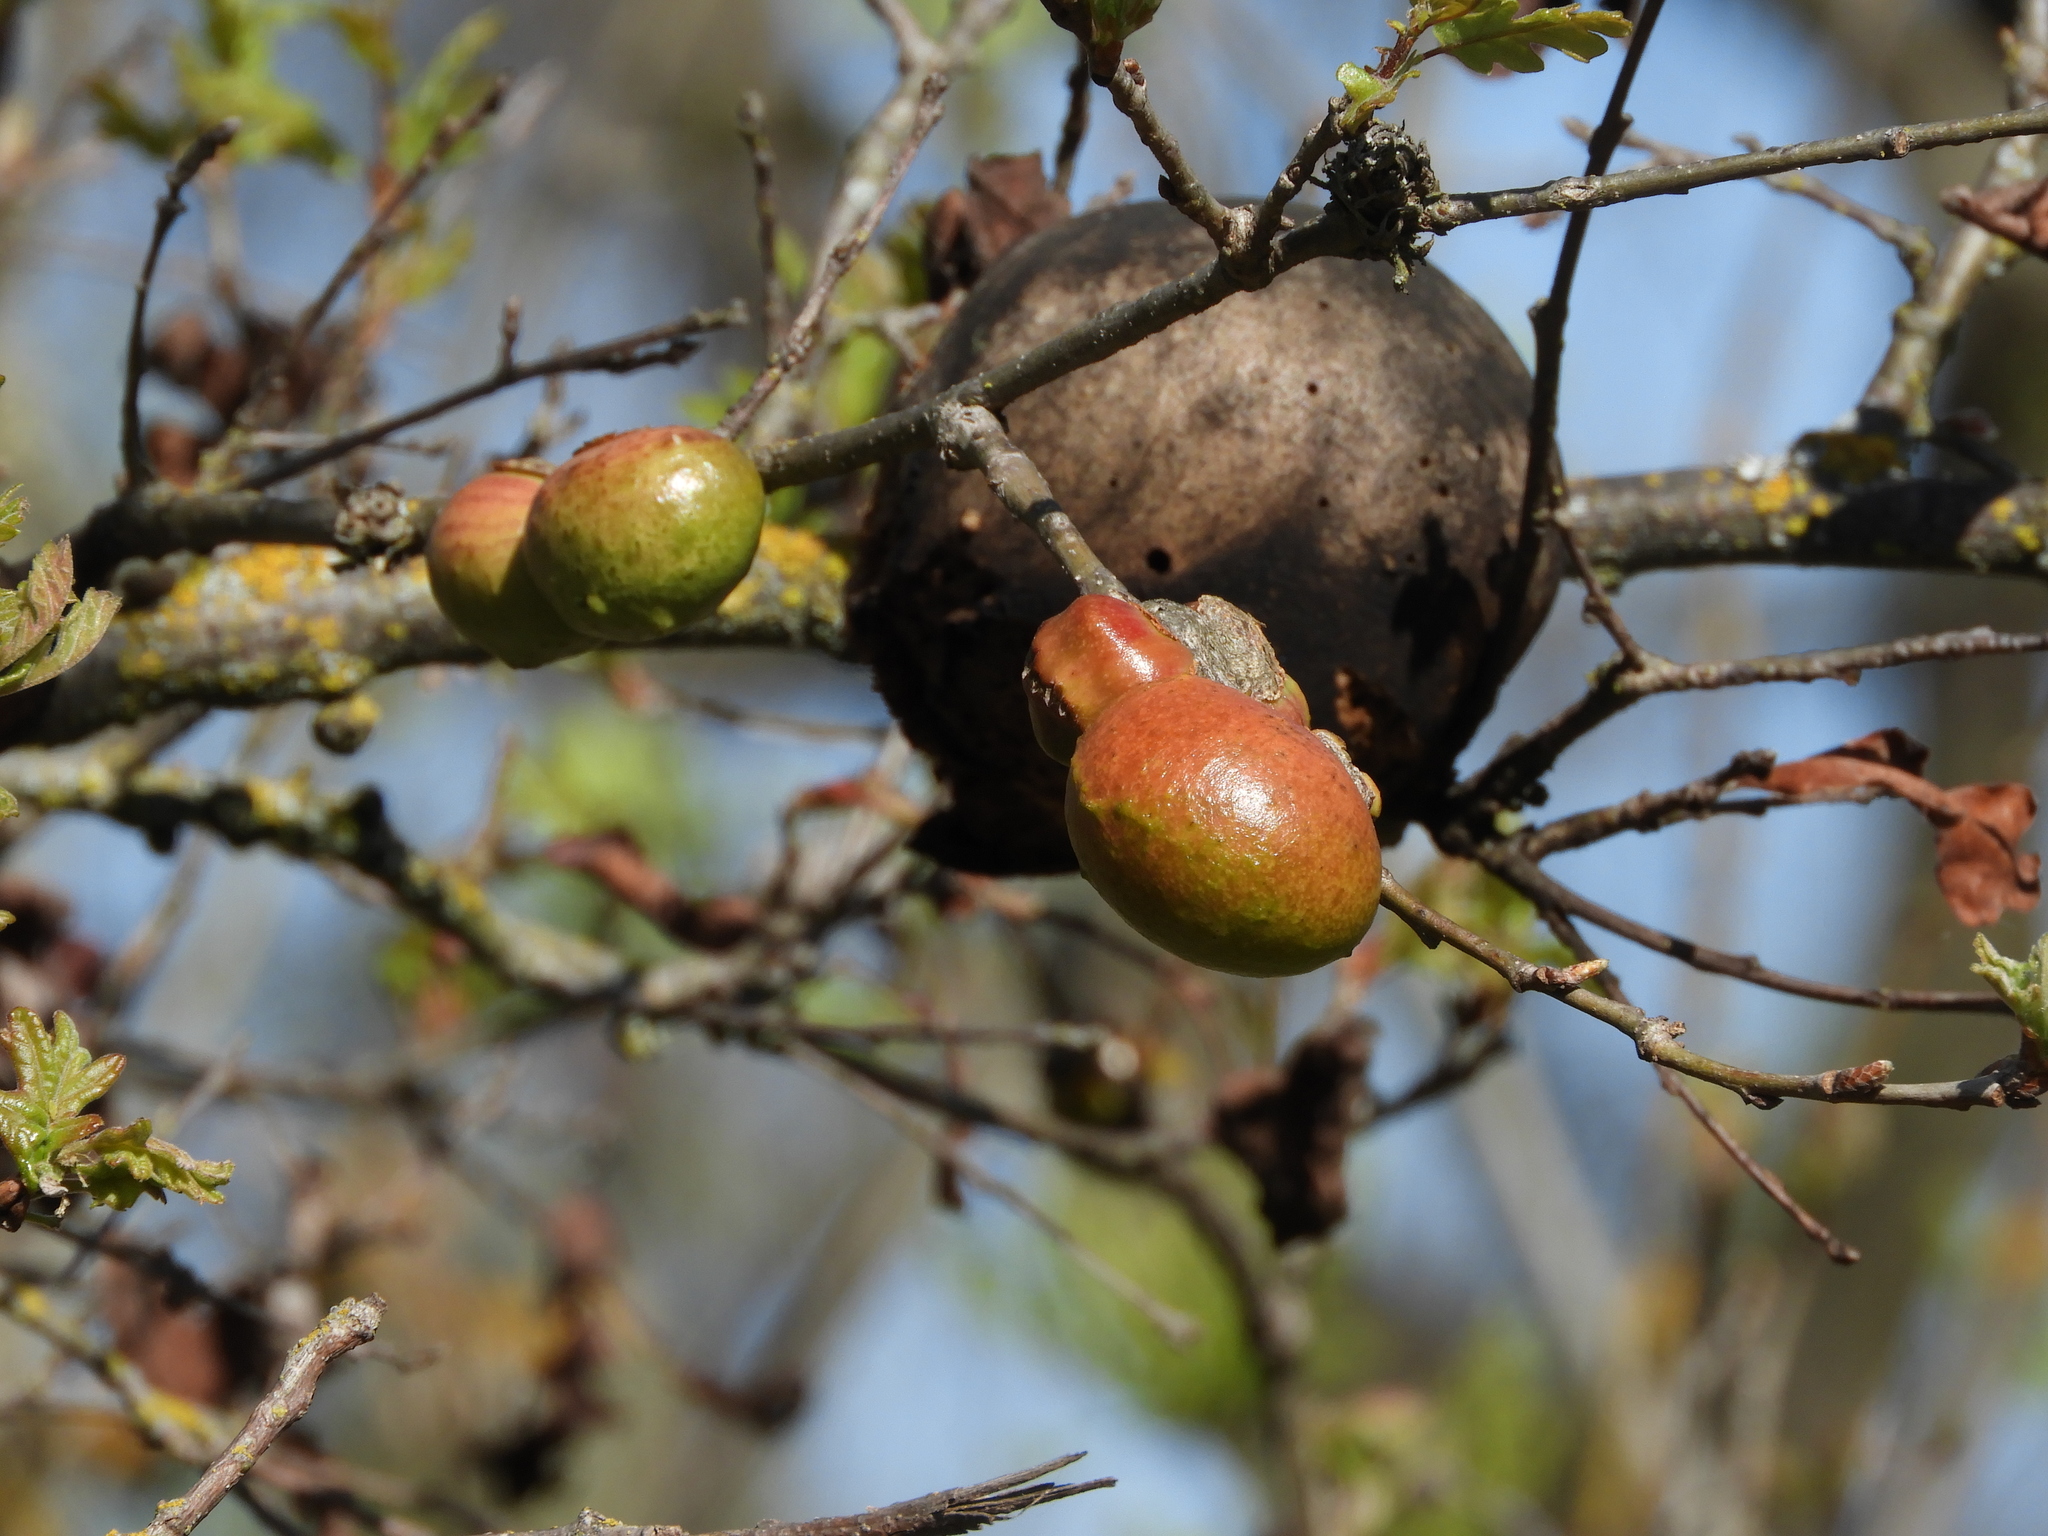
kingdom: Animalia
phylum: Arthropoda
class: Insecta
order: Hymenoptera
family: Cynipidae
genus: Andricus
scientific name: Andricus quercuscalifornicus
